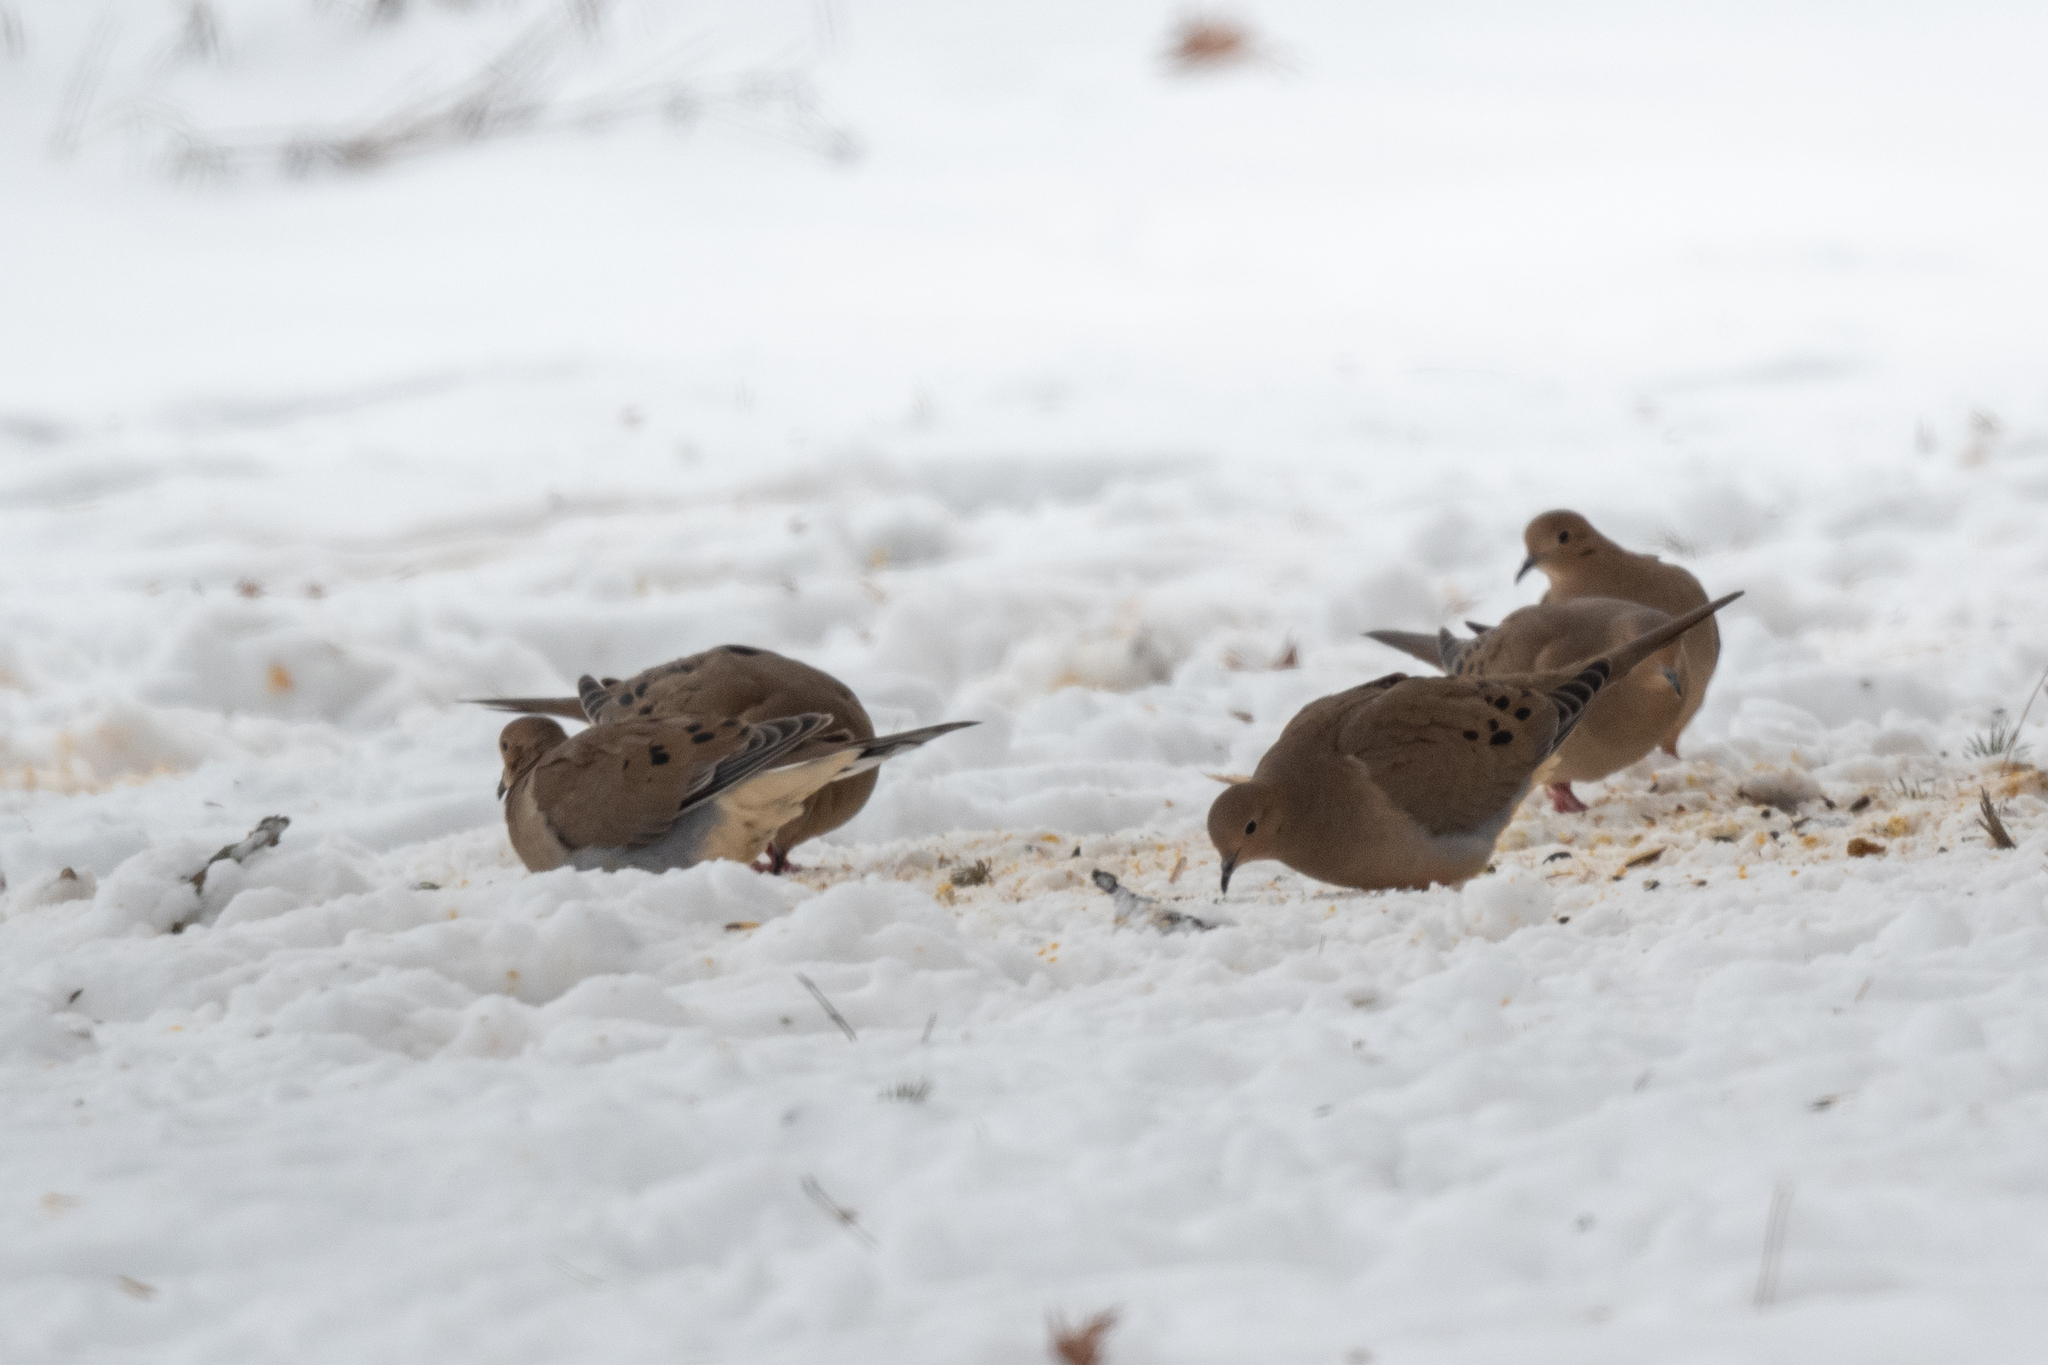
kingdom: Animalia
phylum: Chordata
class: Aves
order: Columbiformes
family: Columbidae
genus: Zenaida
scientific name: Zenaida macroura
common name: Mourning dove
